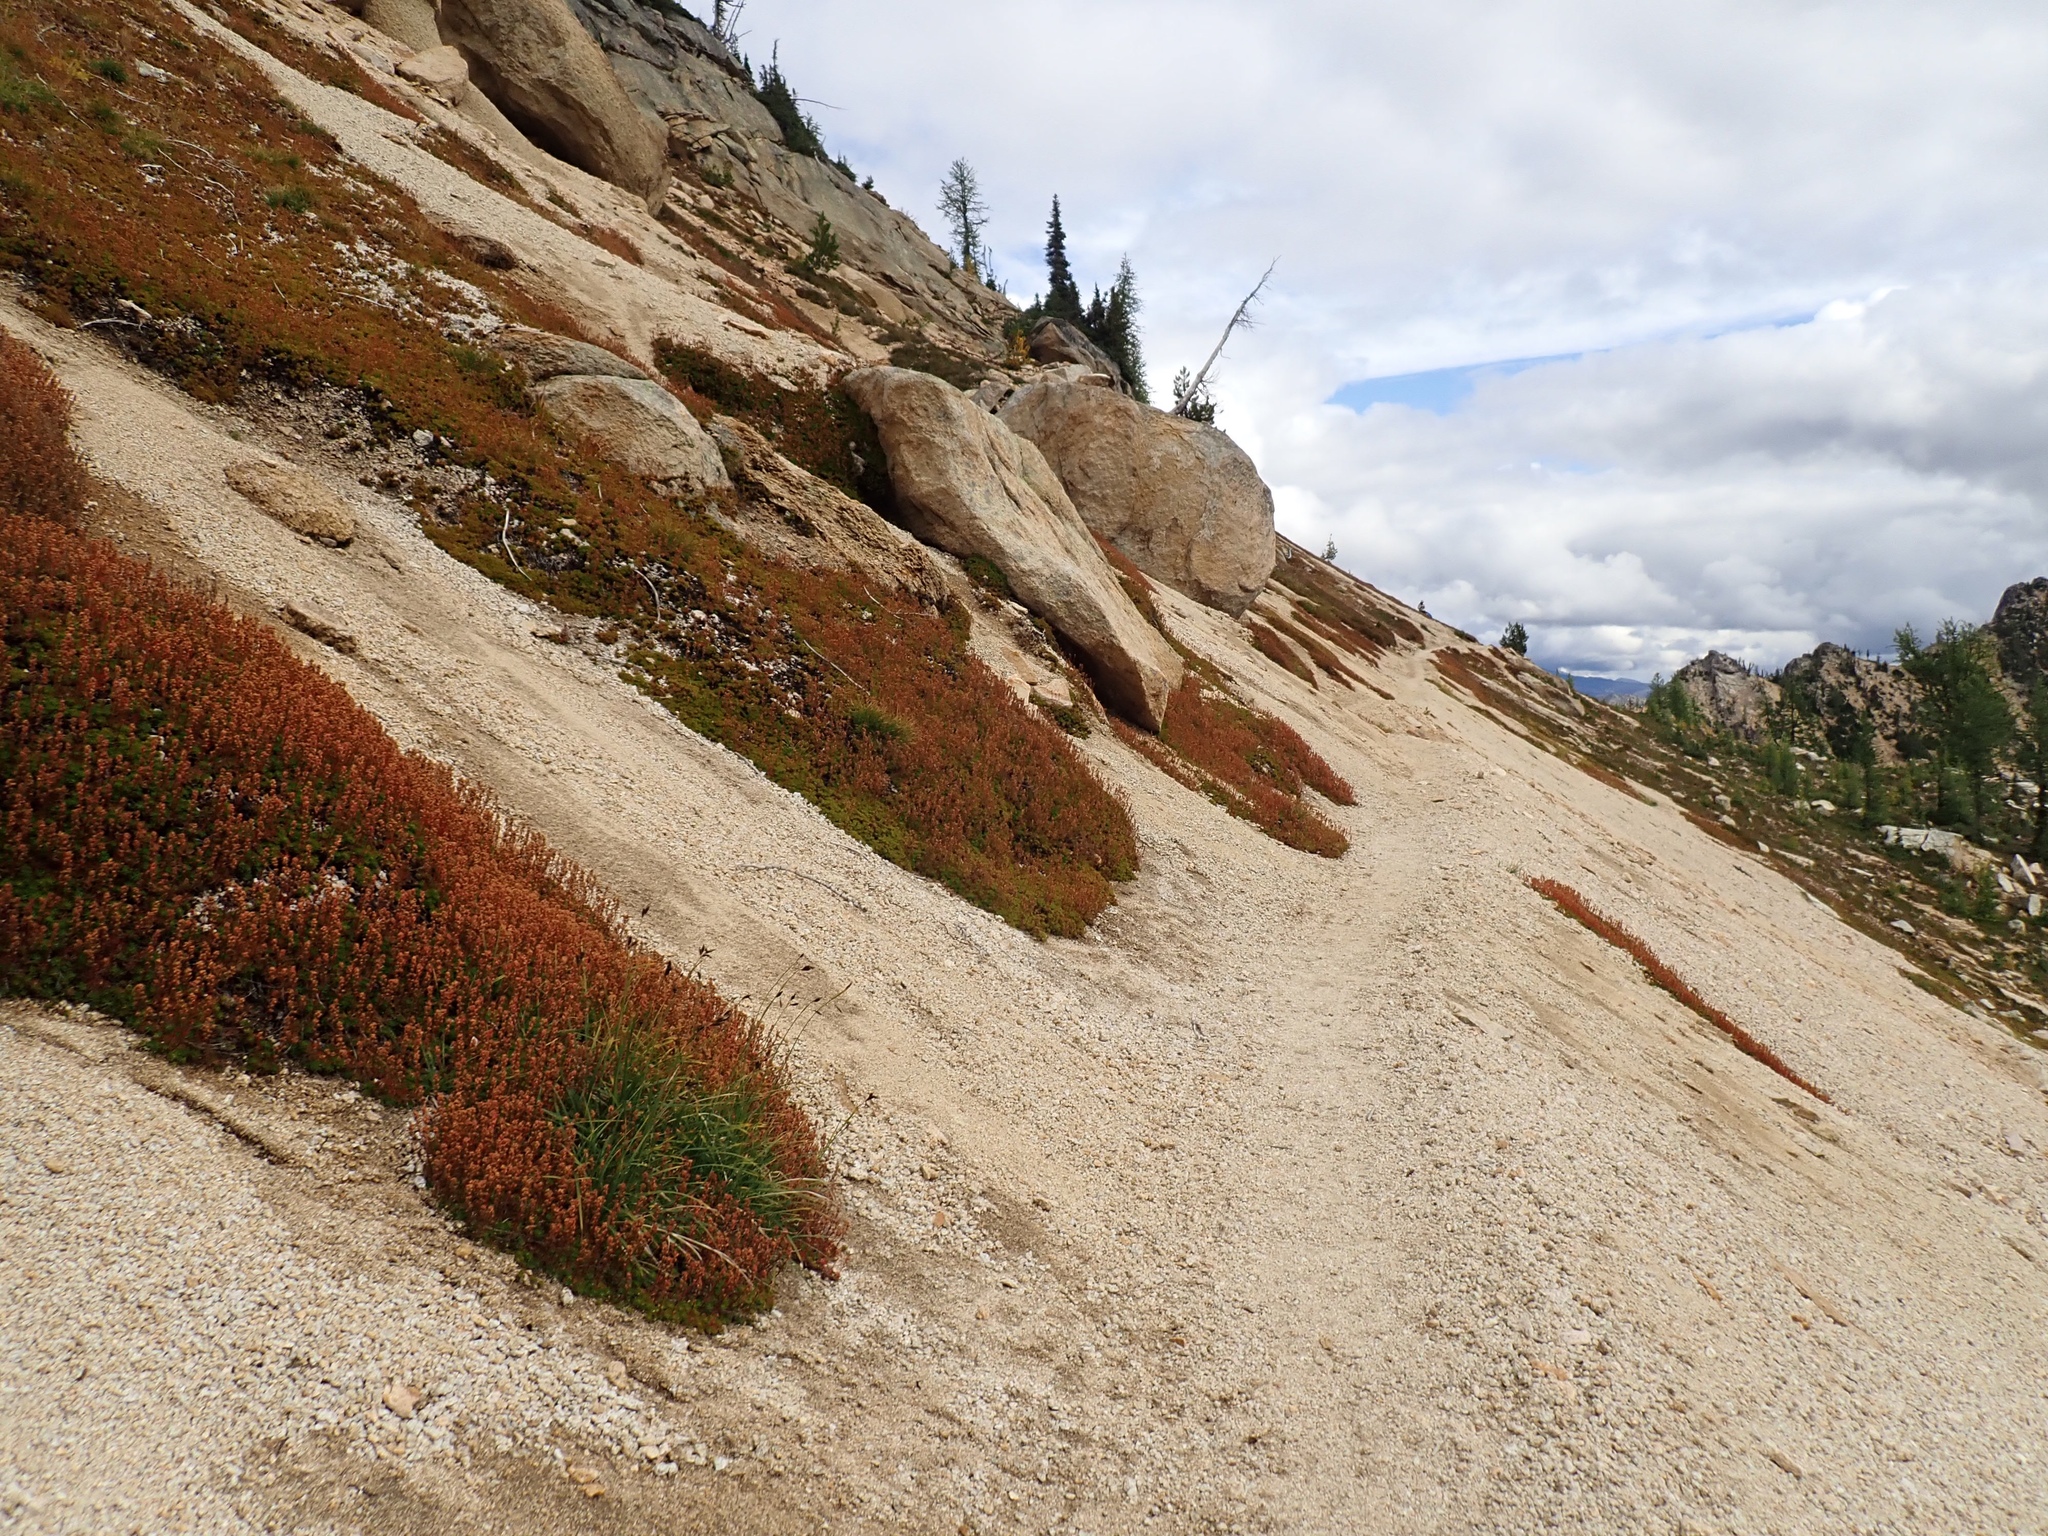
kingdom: Plantae
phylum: Tracheophyta
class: Magnoliopsida
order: Rosales
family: Rosaceae
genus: Luetkea
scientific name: Luetkea pectinata
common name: Partridgefoot
